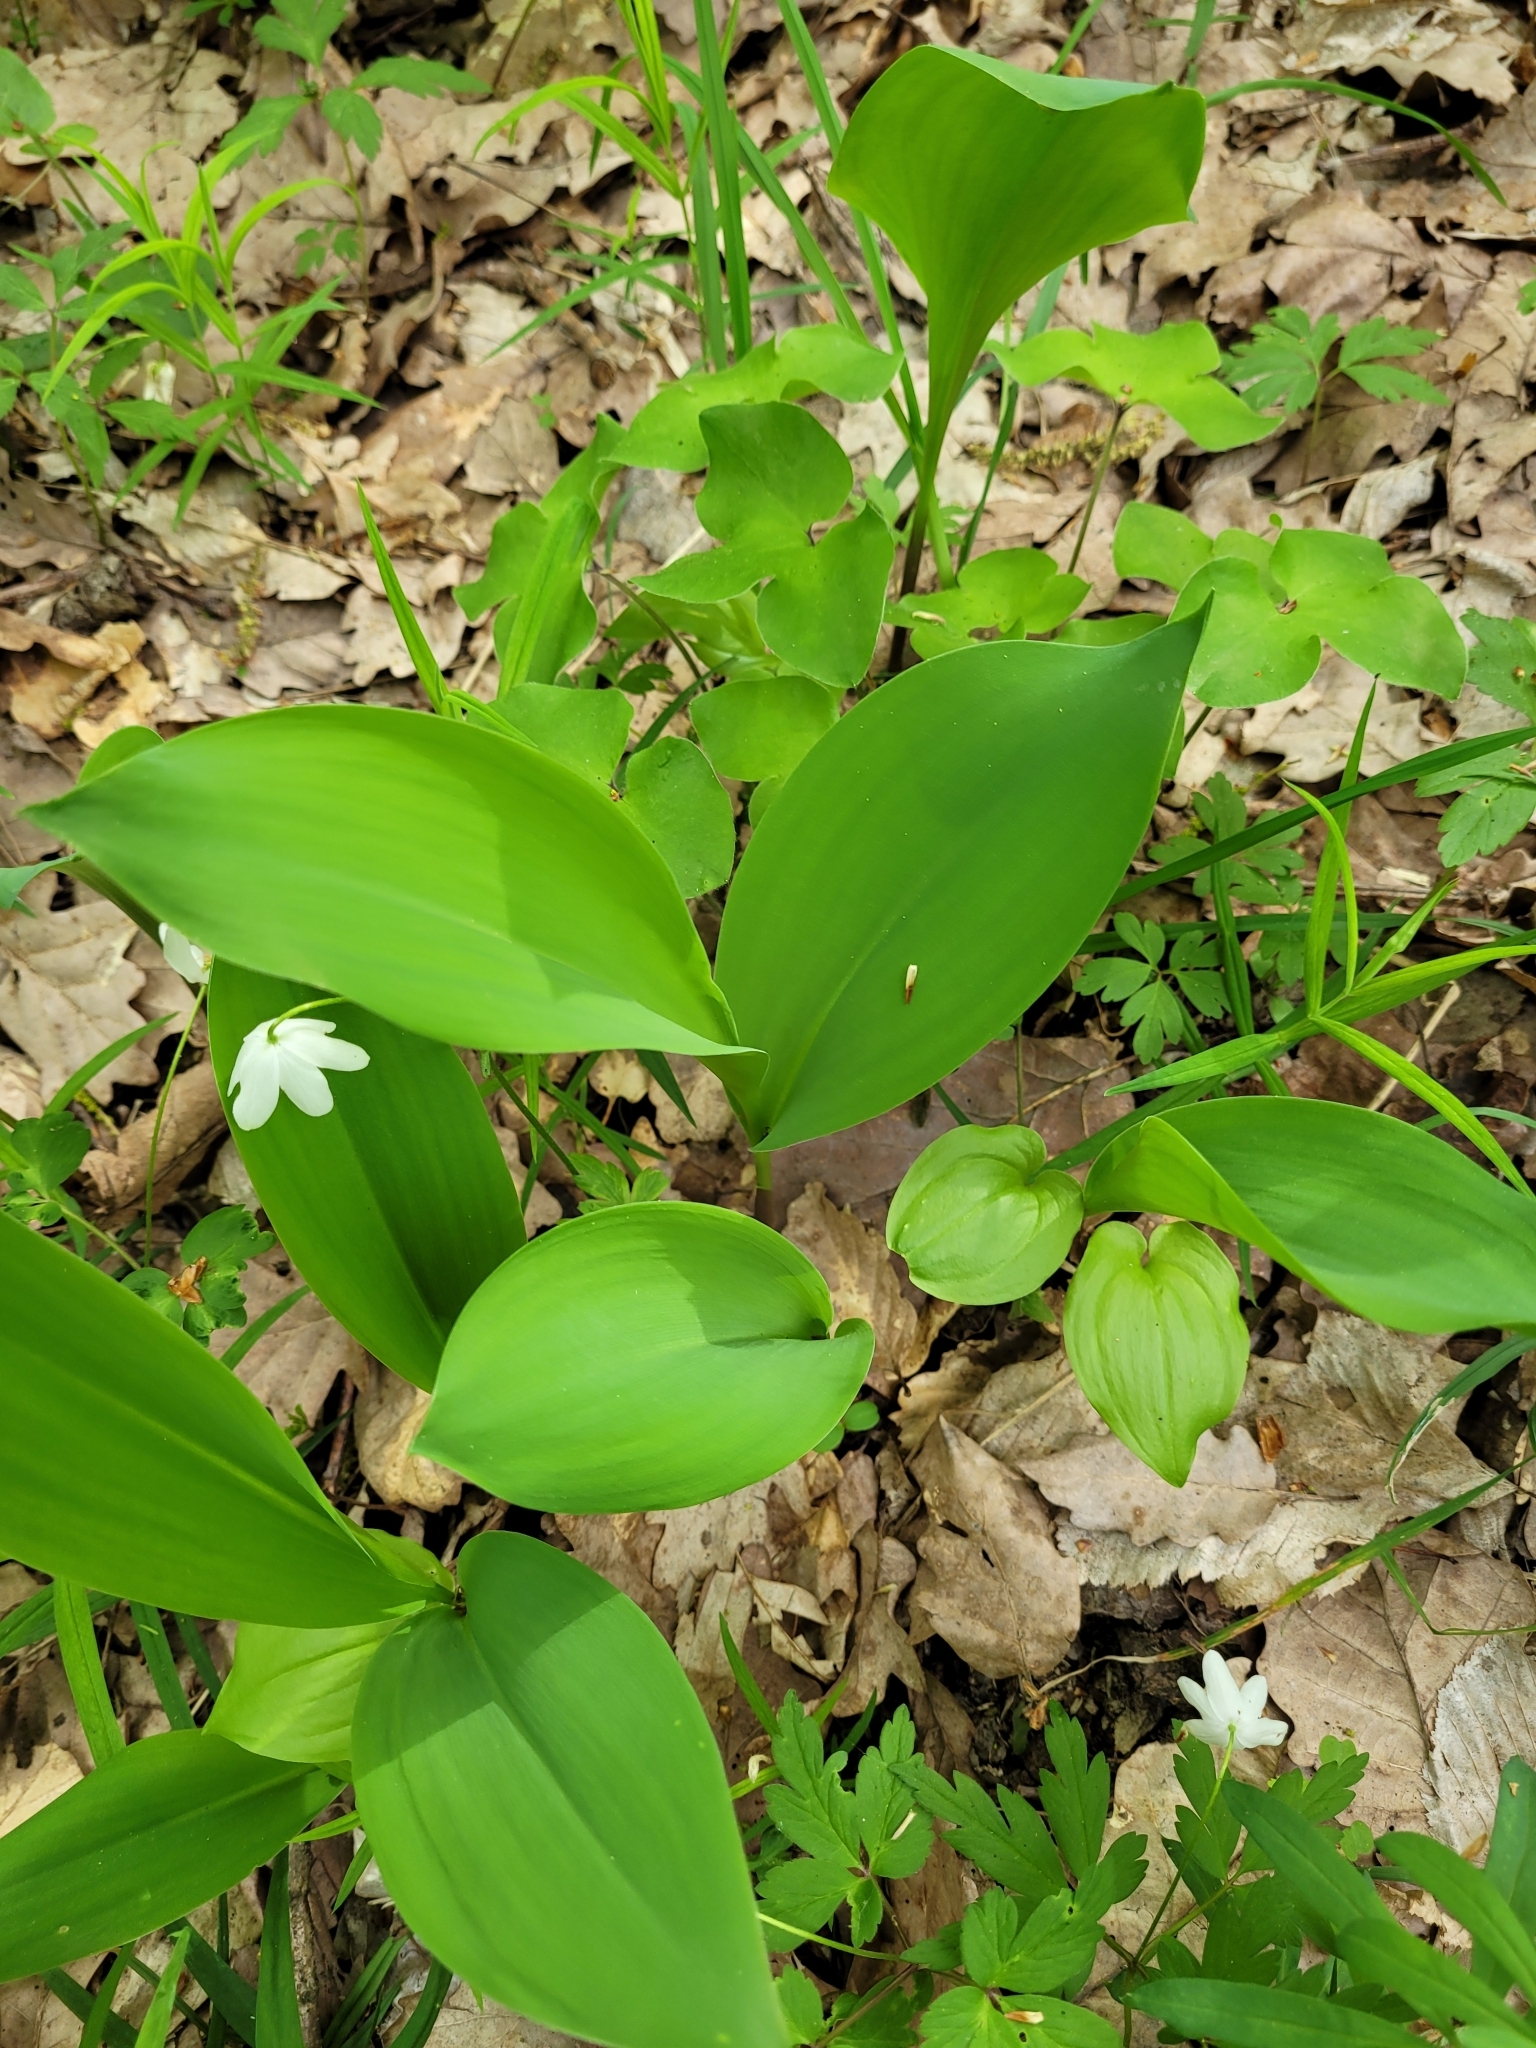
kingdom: Plantae
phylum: Tracheophyta
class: Liliopsida
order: Asparagales
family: Asparagaceae
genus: Convallaria
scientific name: Convallaria majalis
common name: Lily-of-the-valley
